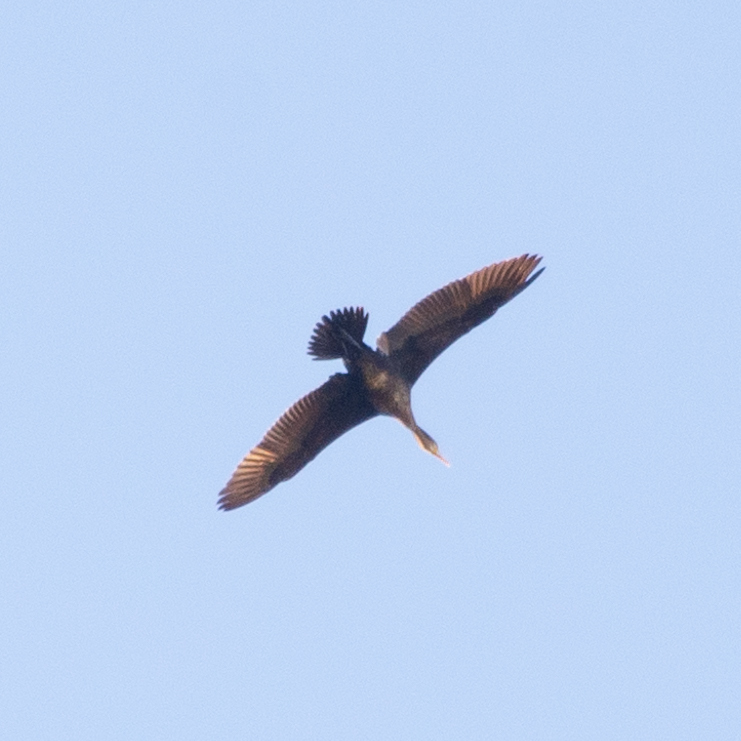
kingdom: Animalia
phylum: Chordata
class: Aves
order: Suliformes
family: Phalacrocoracidae
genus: Phalacrocorax
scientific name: Phalacrocorax carbo
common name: Great cormorant
